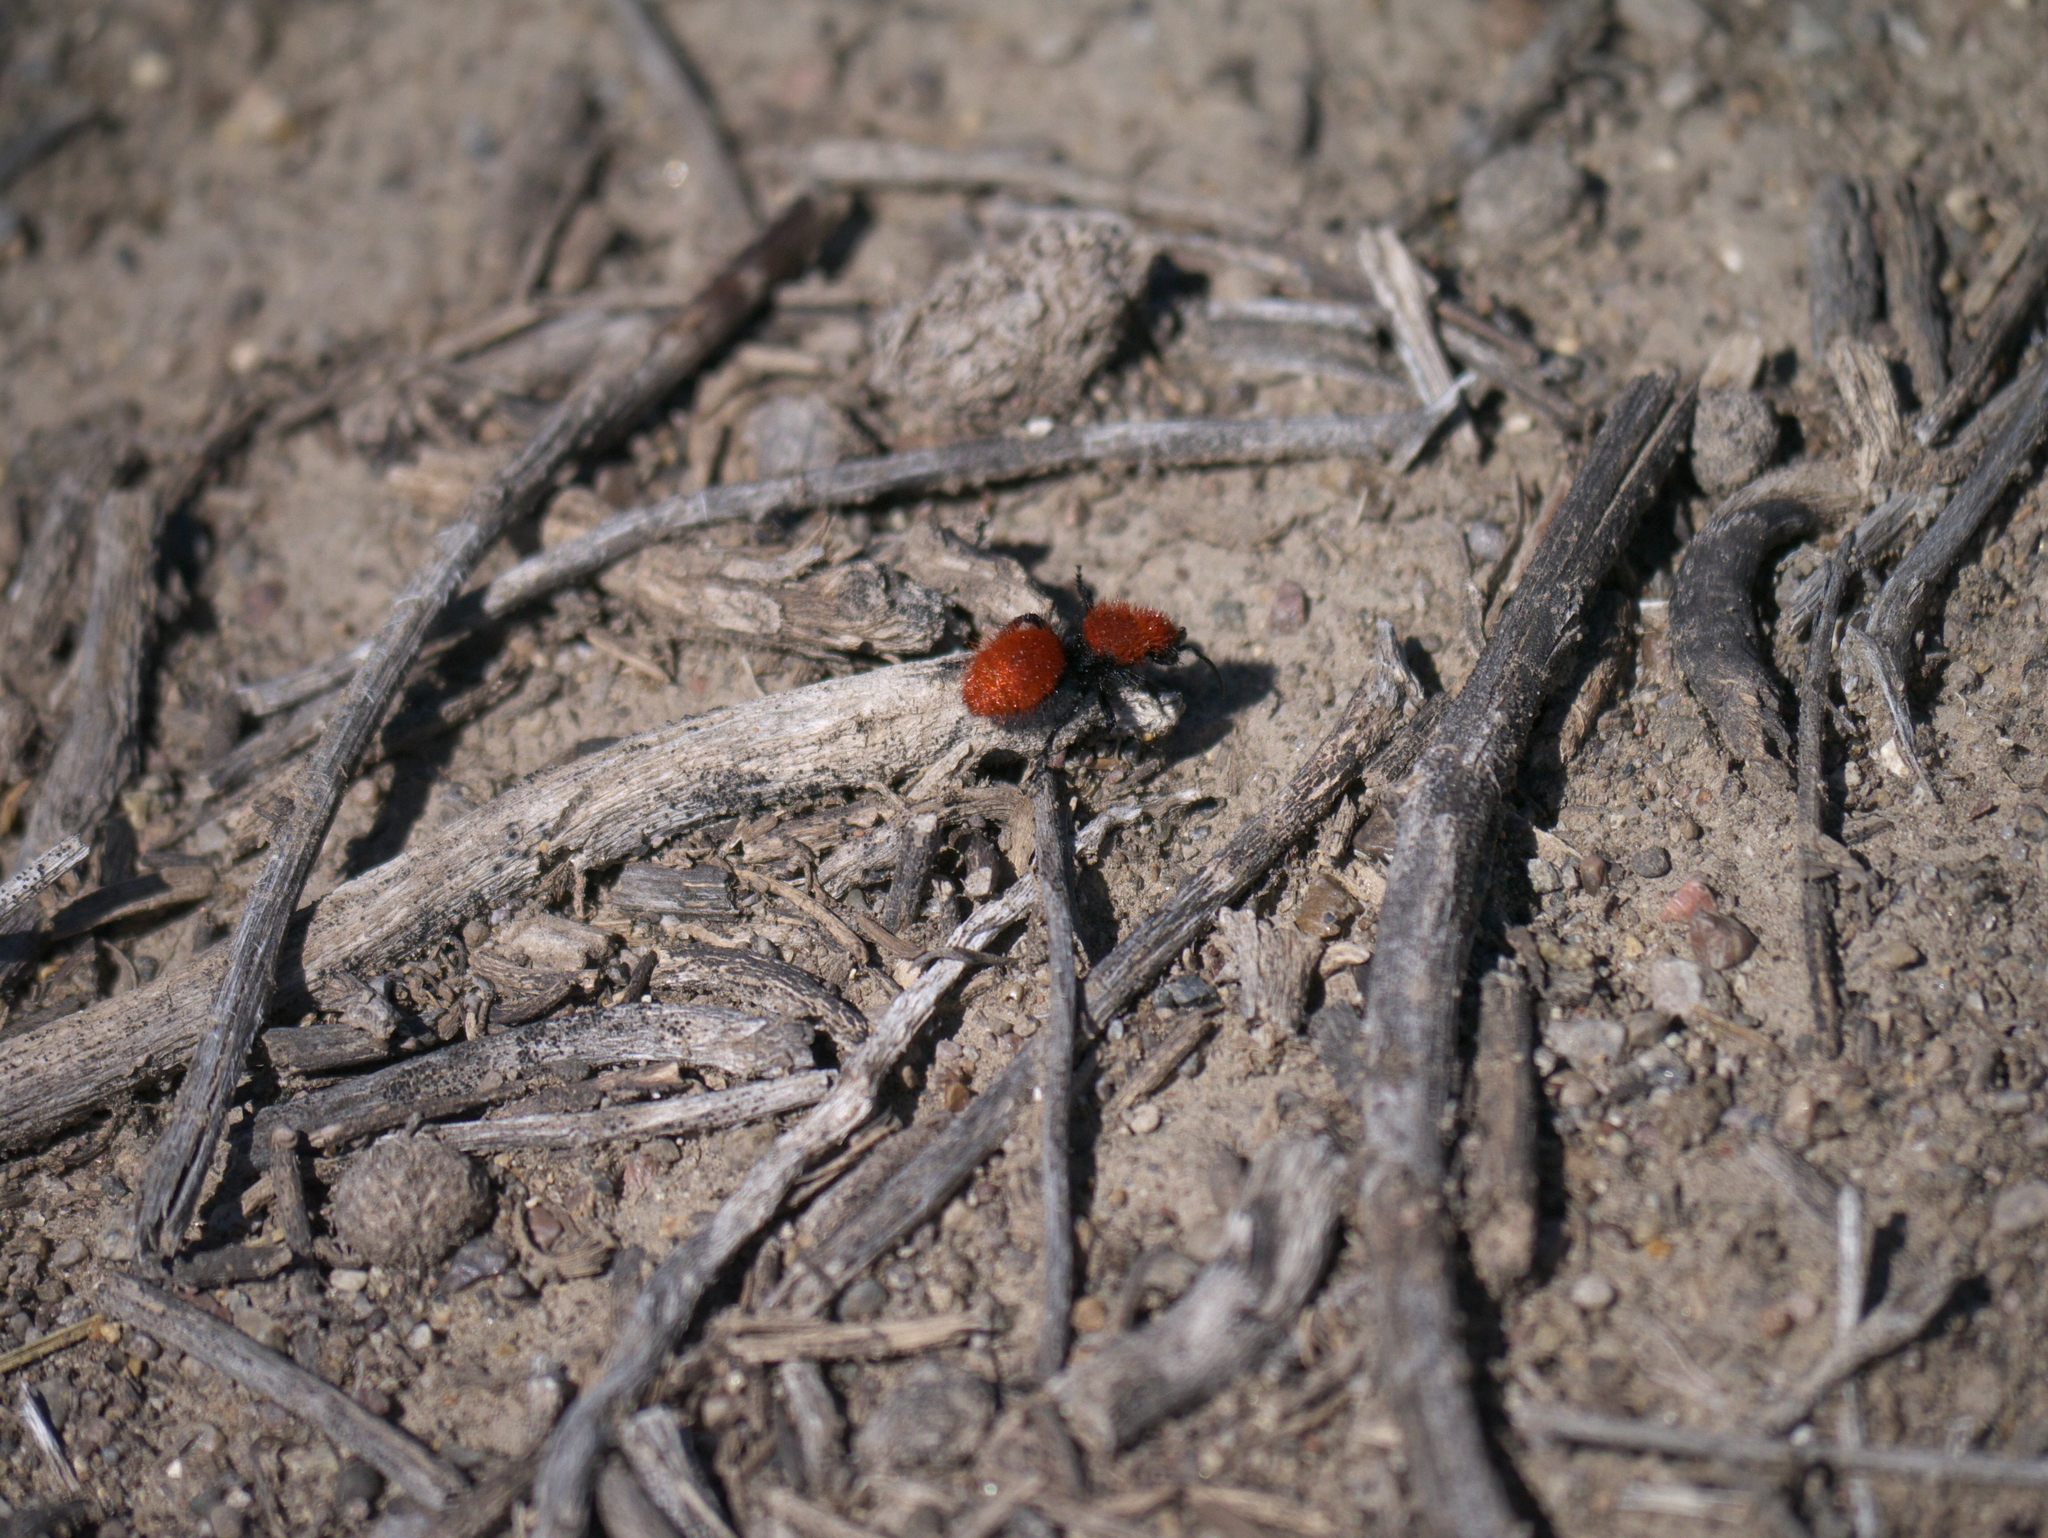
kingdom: Animalia
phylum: Arthropoda
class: Insecta
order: Hymenoptera
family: Mutillidae
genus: Dasymutilla
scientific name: Dasymutilla vestita
